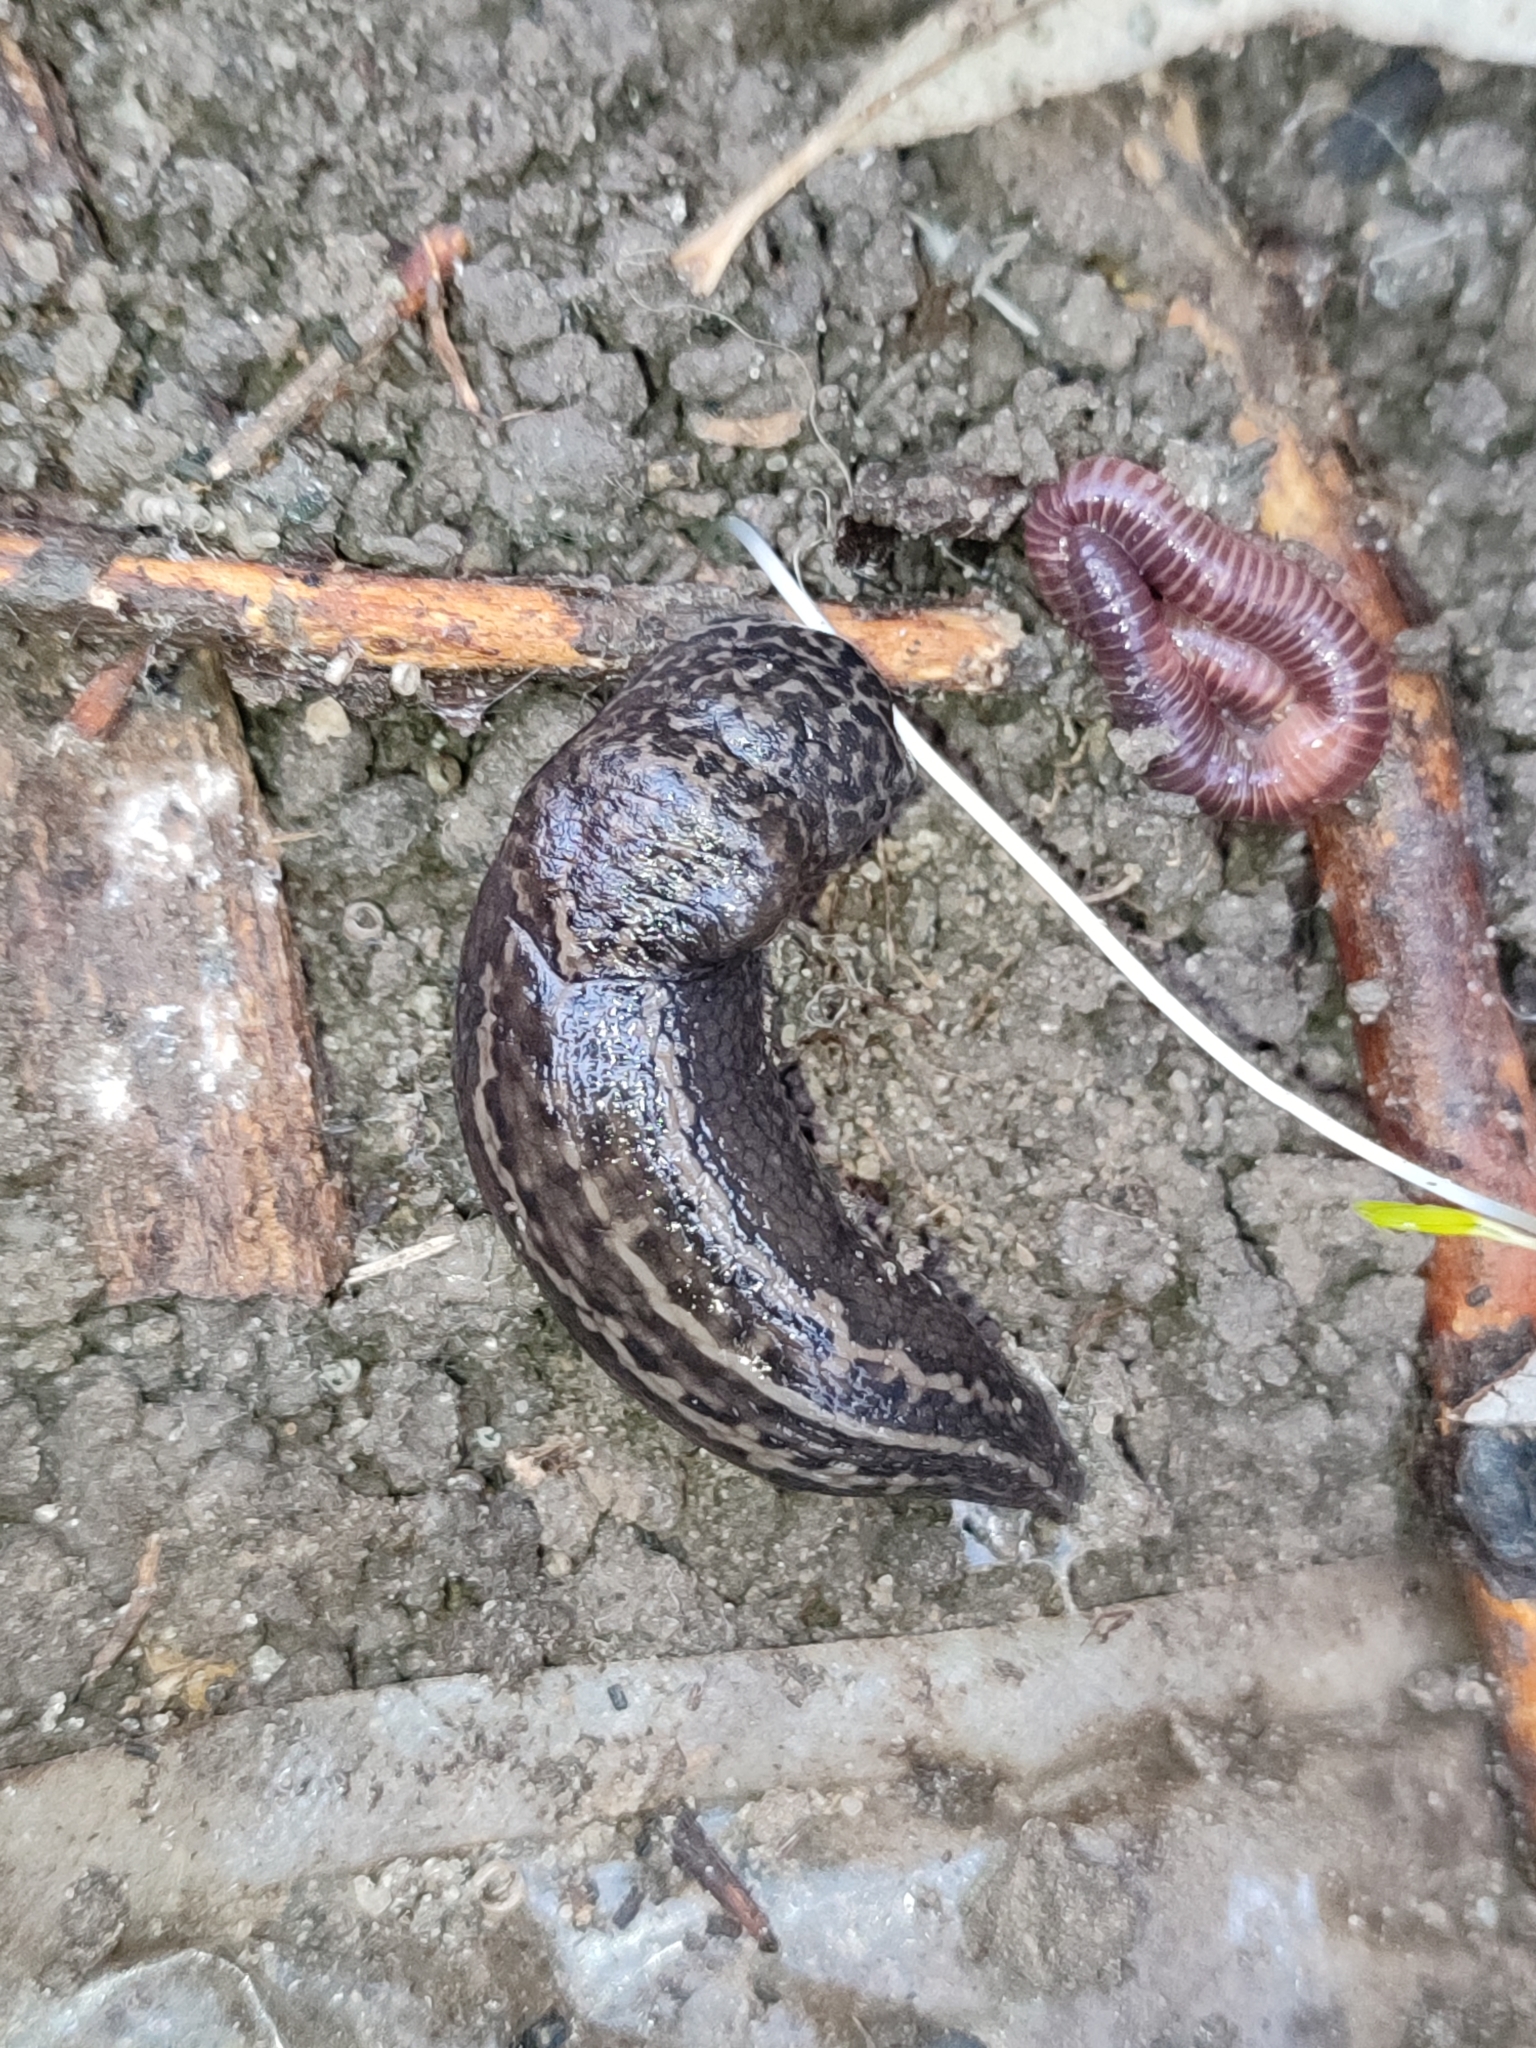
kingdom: Animalia
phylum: Mollusca
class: Gastropoda
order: Stylommatophora
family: Limacidae
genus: Limax
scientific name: Limax maximus
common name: Great grey slug
